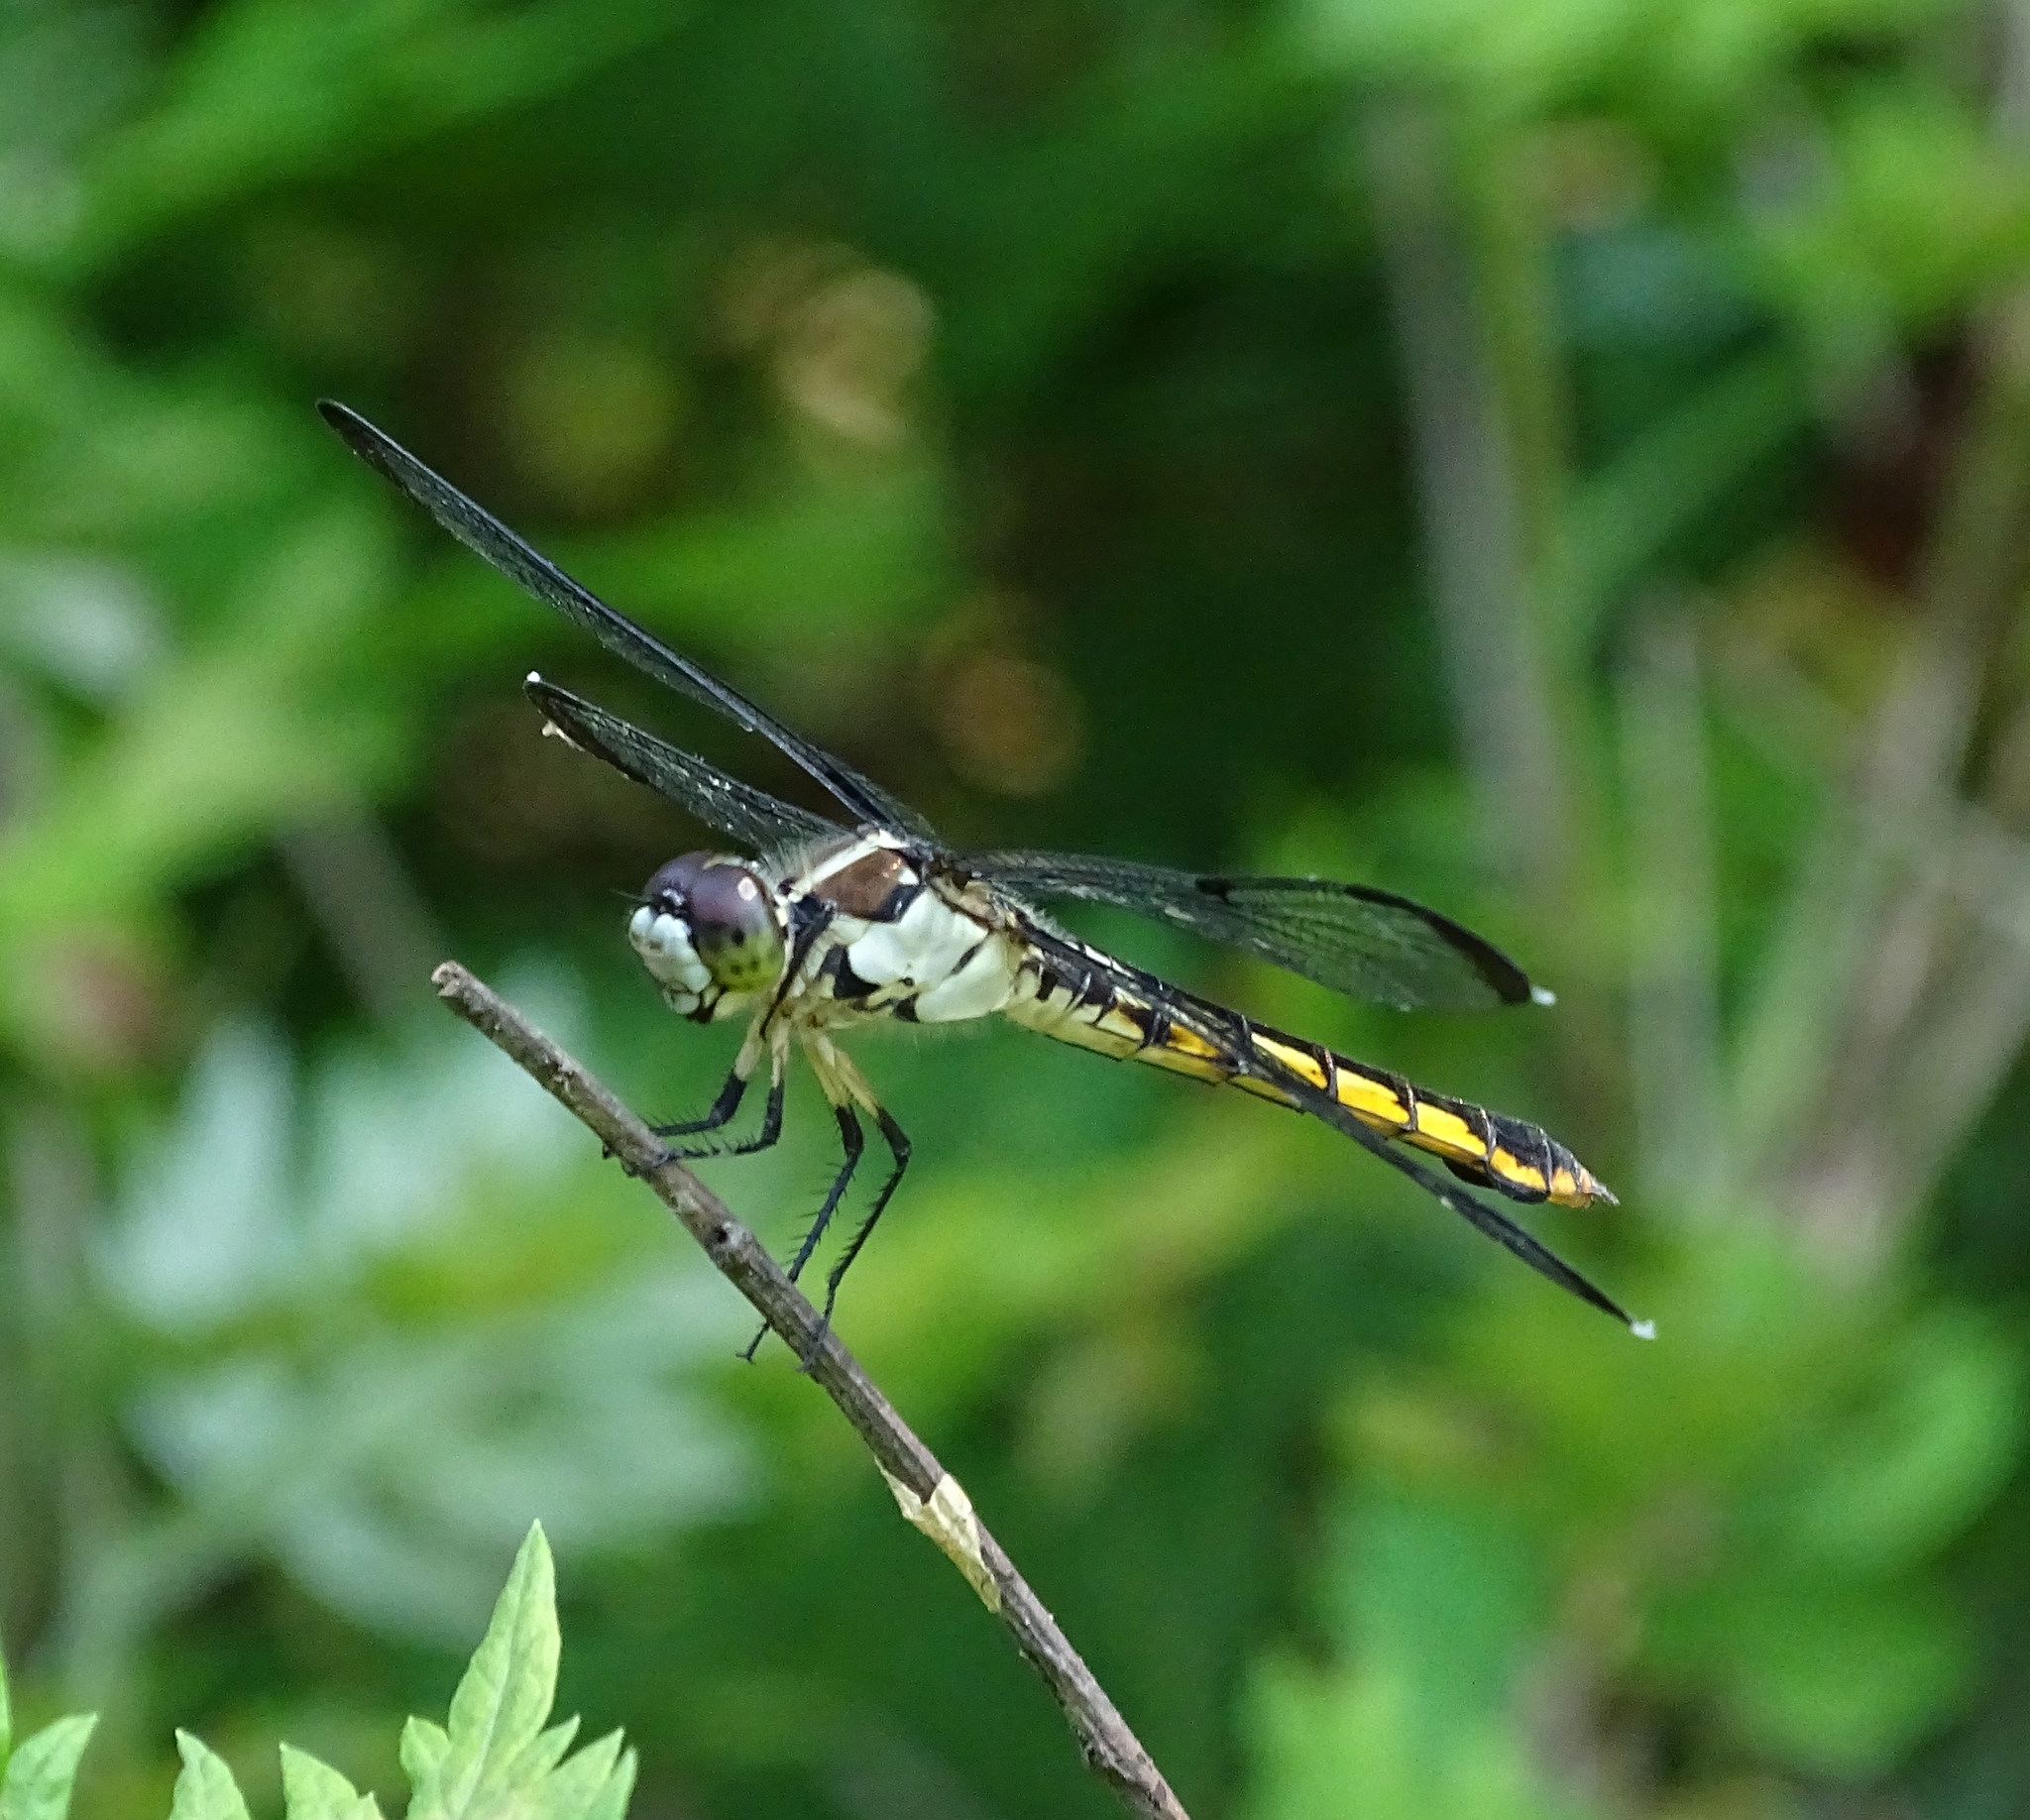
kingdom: Animalia
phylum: Arthropoda
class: Insecta
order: Odonata
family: Libellulidae
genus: Libellula
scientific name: Libellula vibrans
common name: Great blue skimmer
